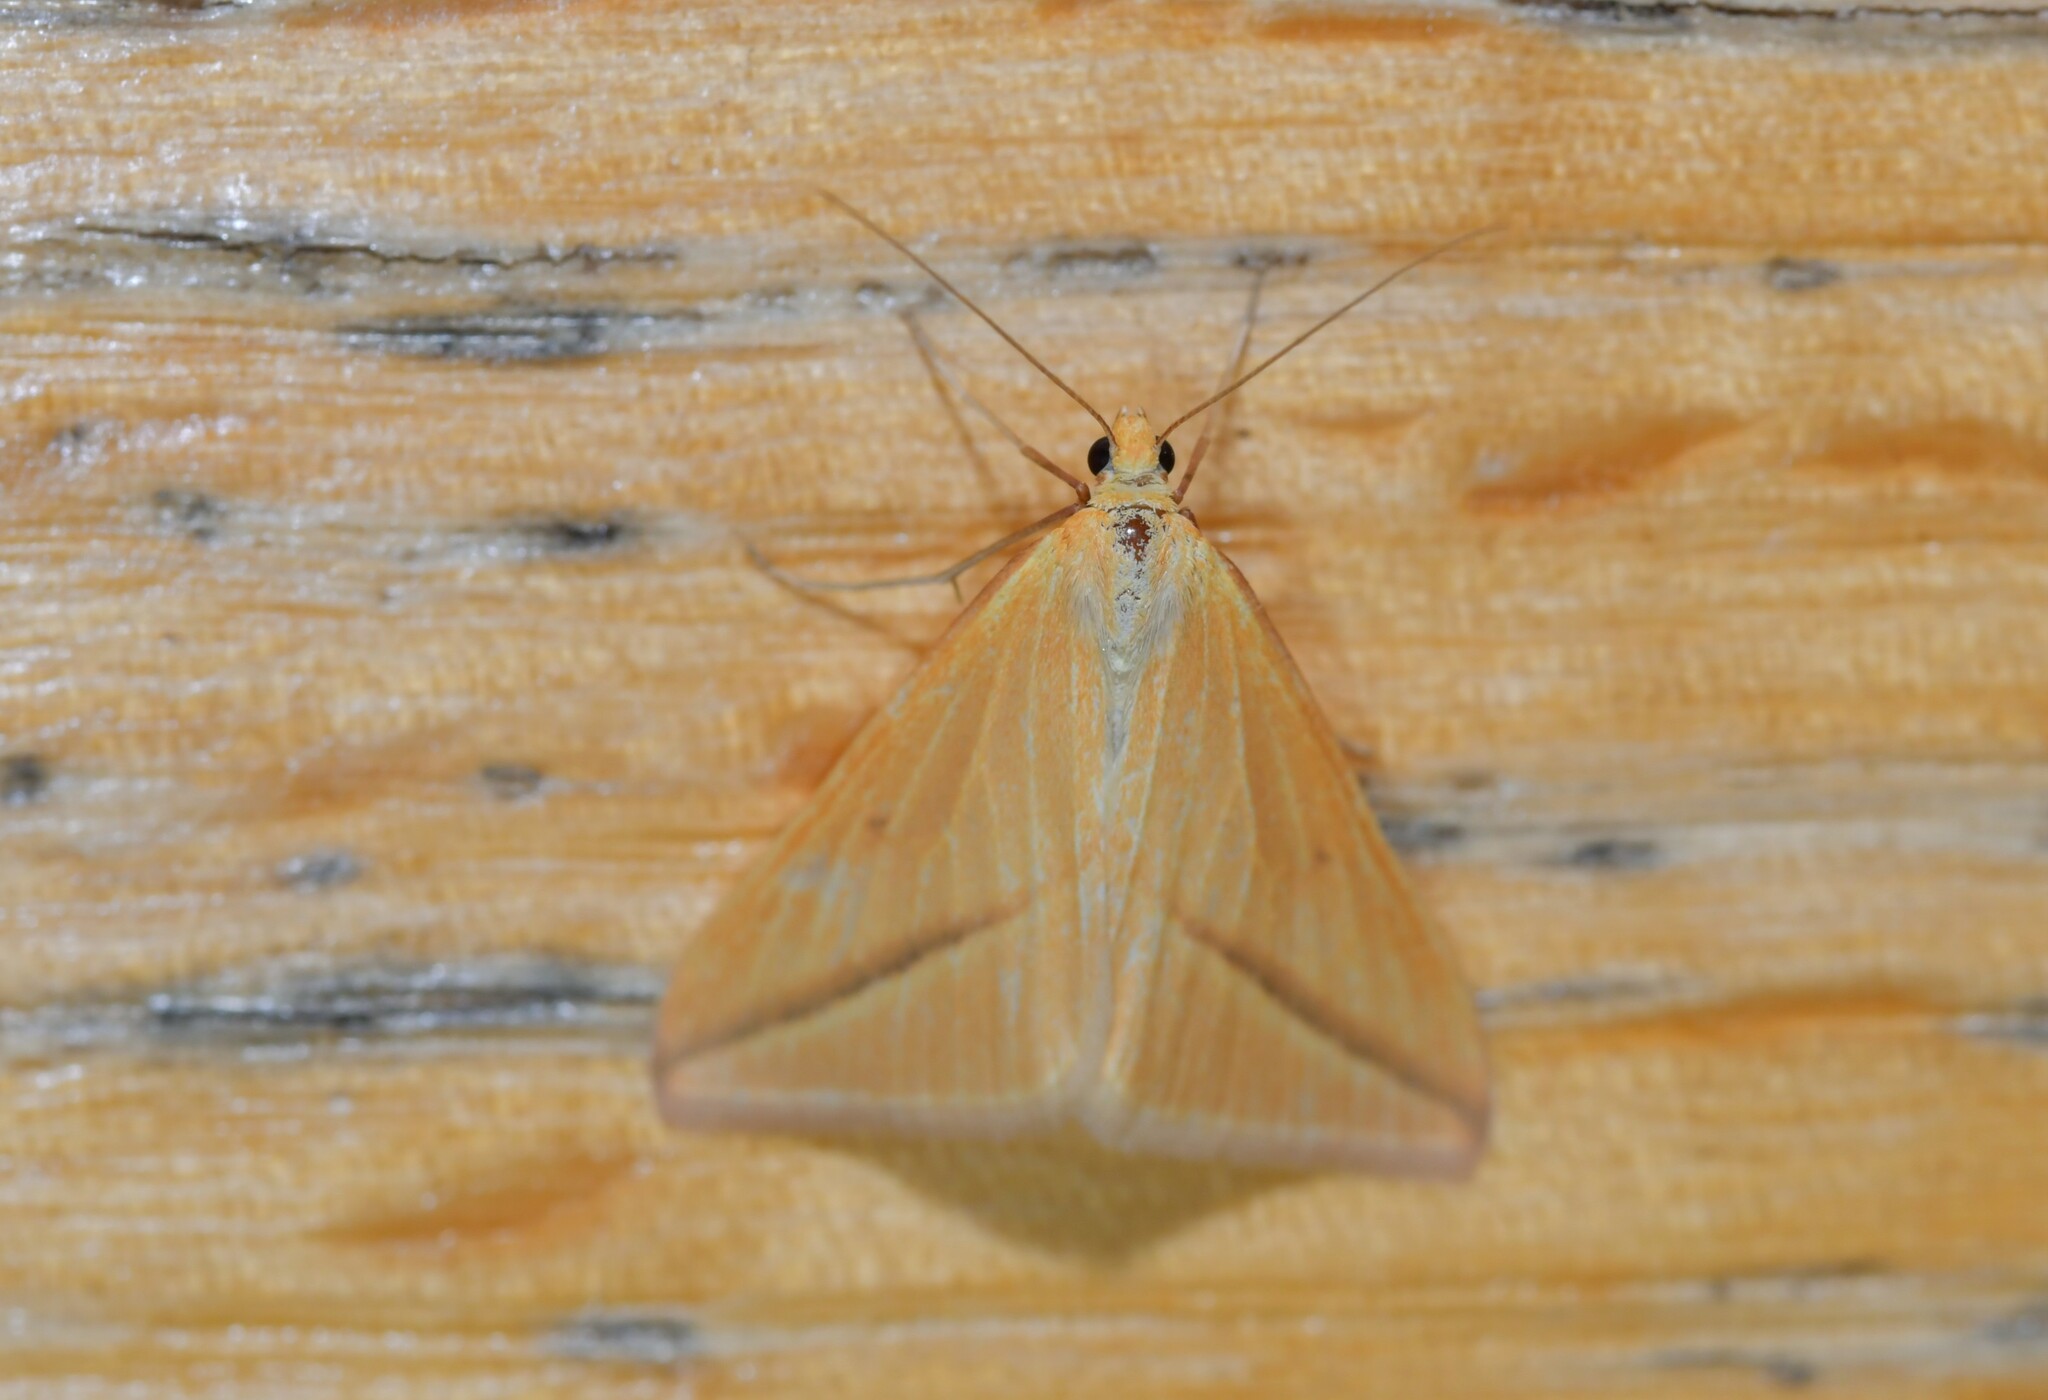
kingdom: Animalia
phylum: Arthropoda
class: Insecta
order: Lepidoptera
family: Geometridae
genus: Rhodometra
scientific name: Rhodometra sacraria
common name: Vestal
